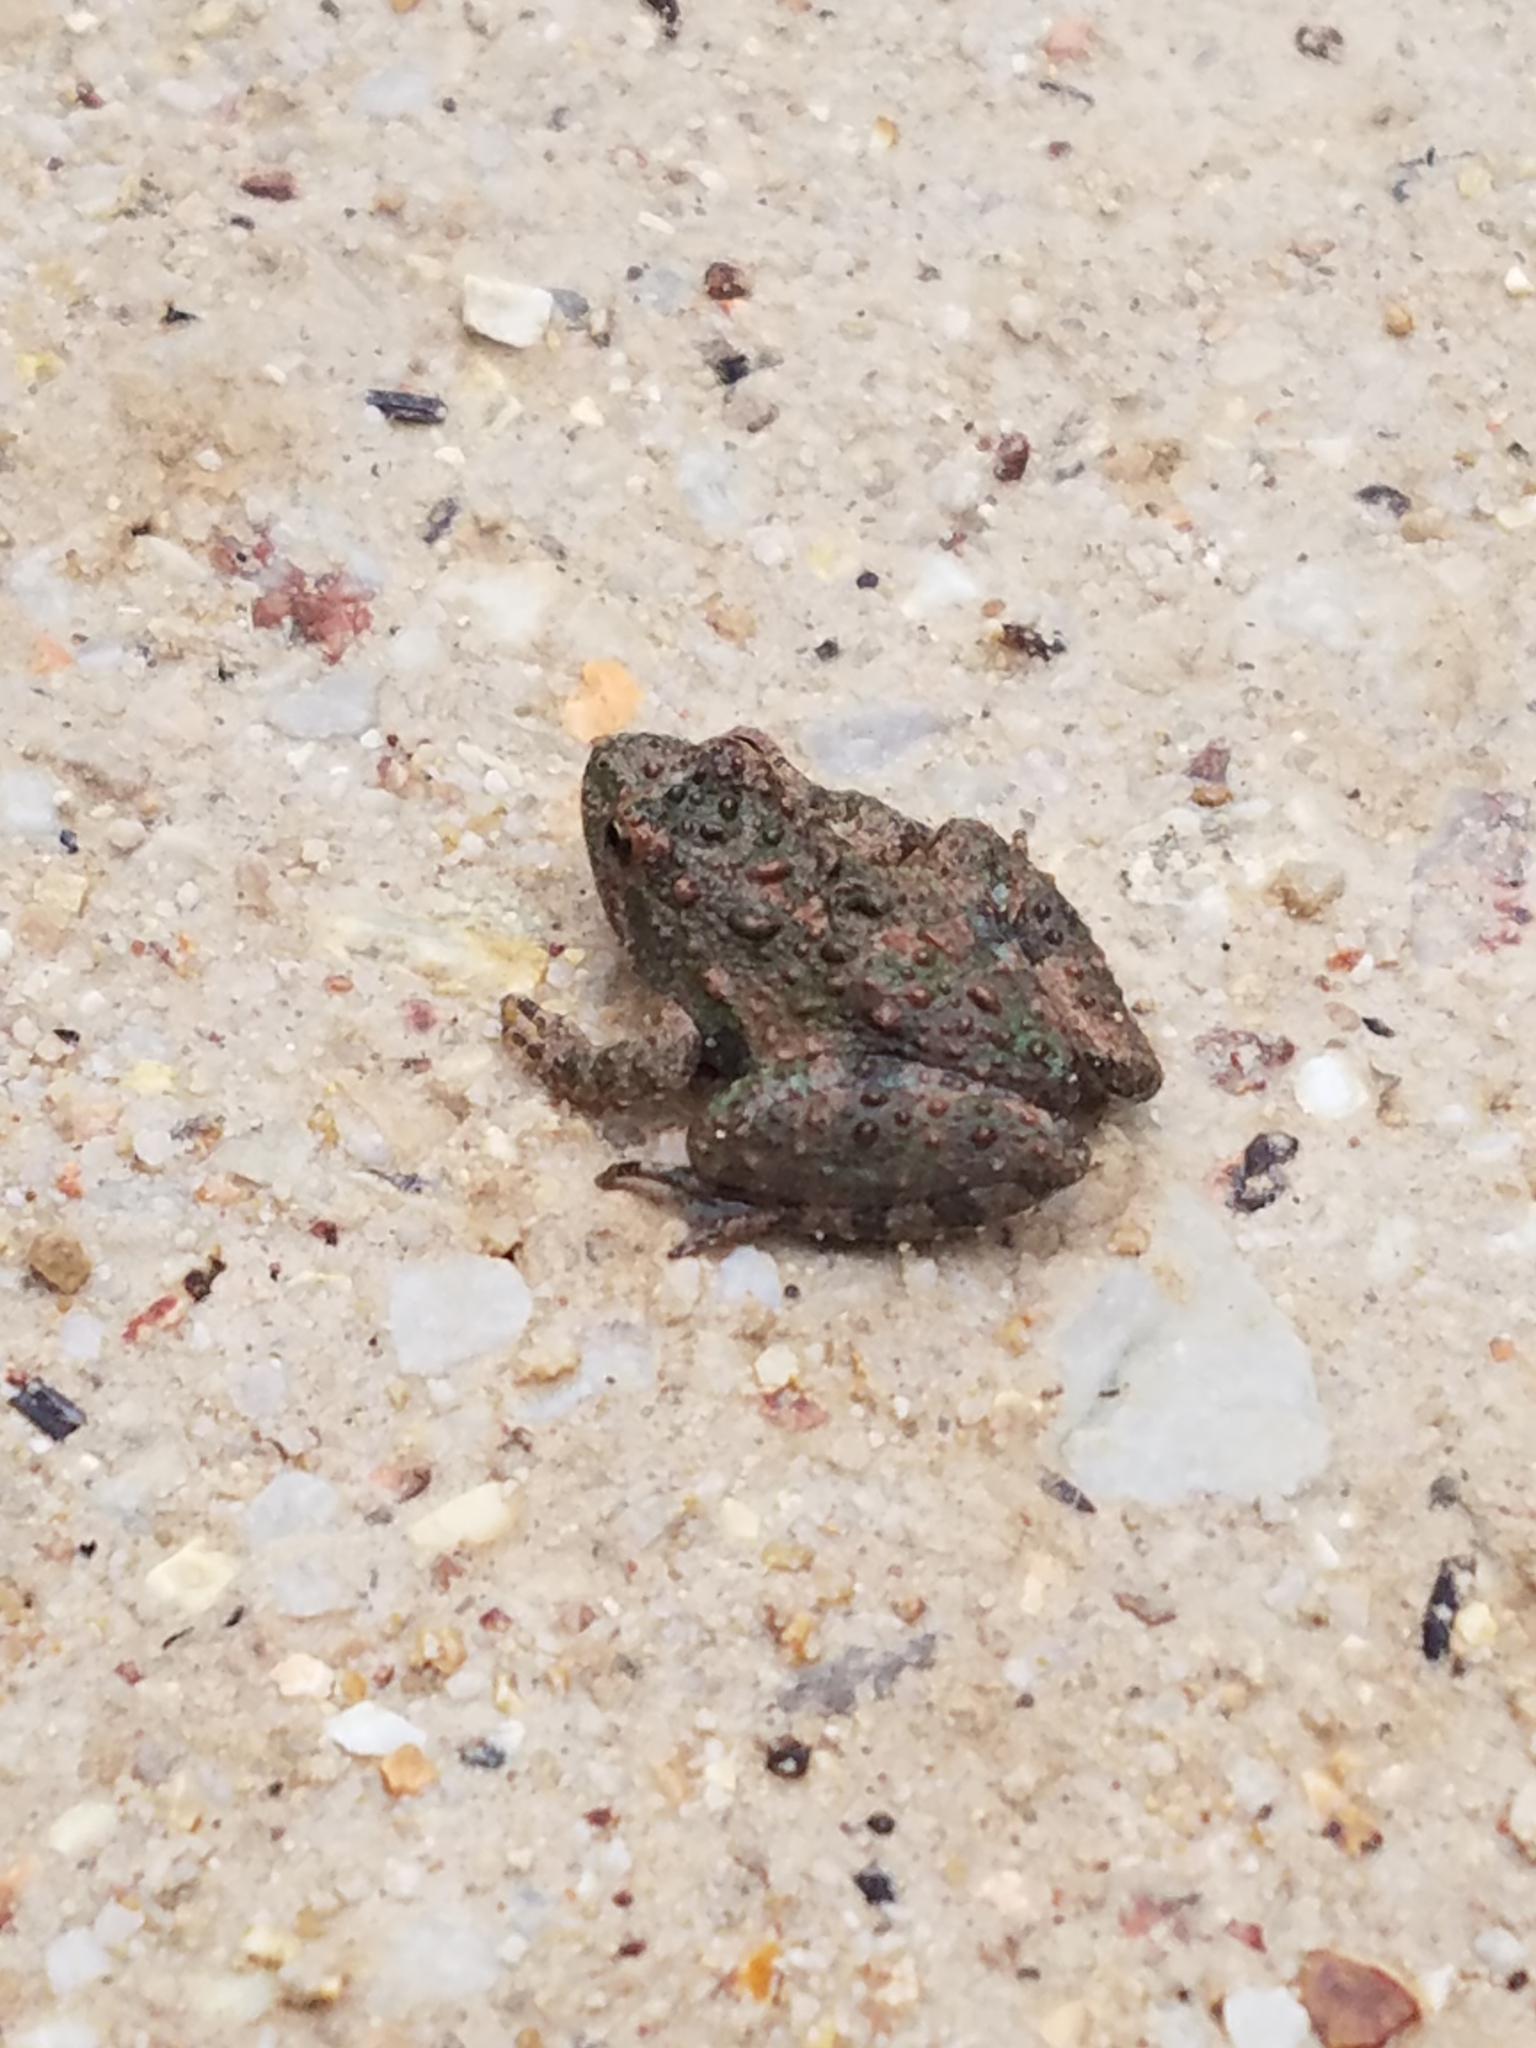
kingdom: Animalia
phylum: Chordata
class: Amphibia
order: Anura
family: Hylidae
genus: Acris
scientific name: Acris blanchardi
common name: Blanchard's cricket frog
